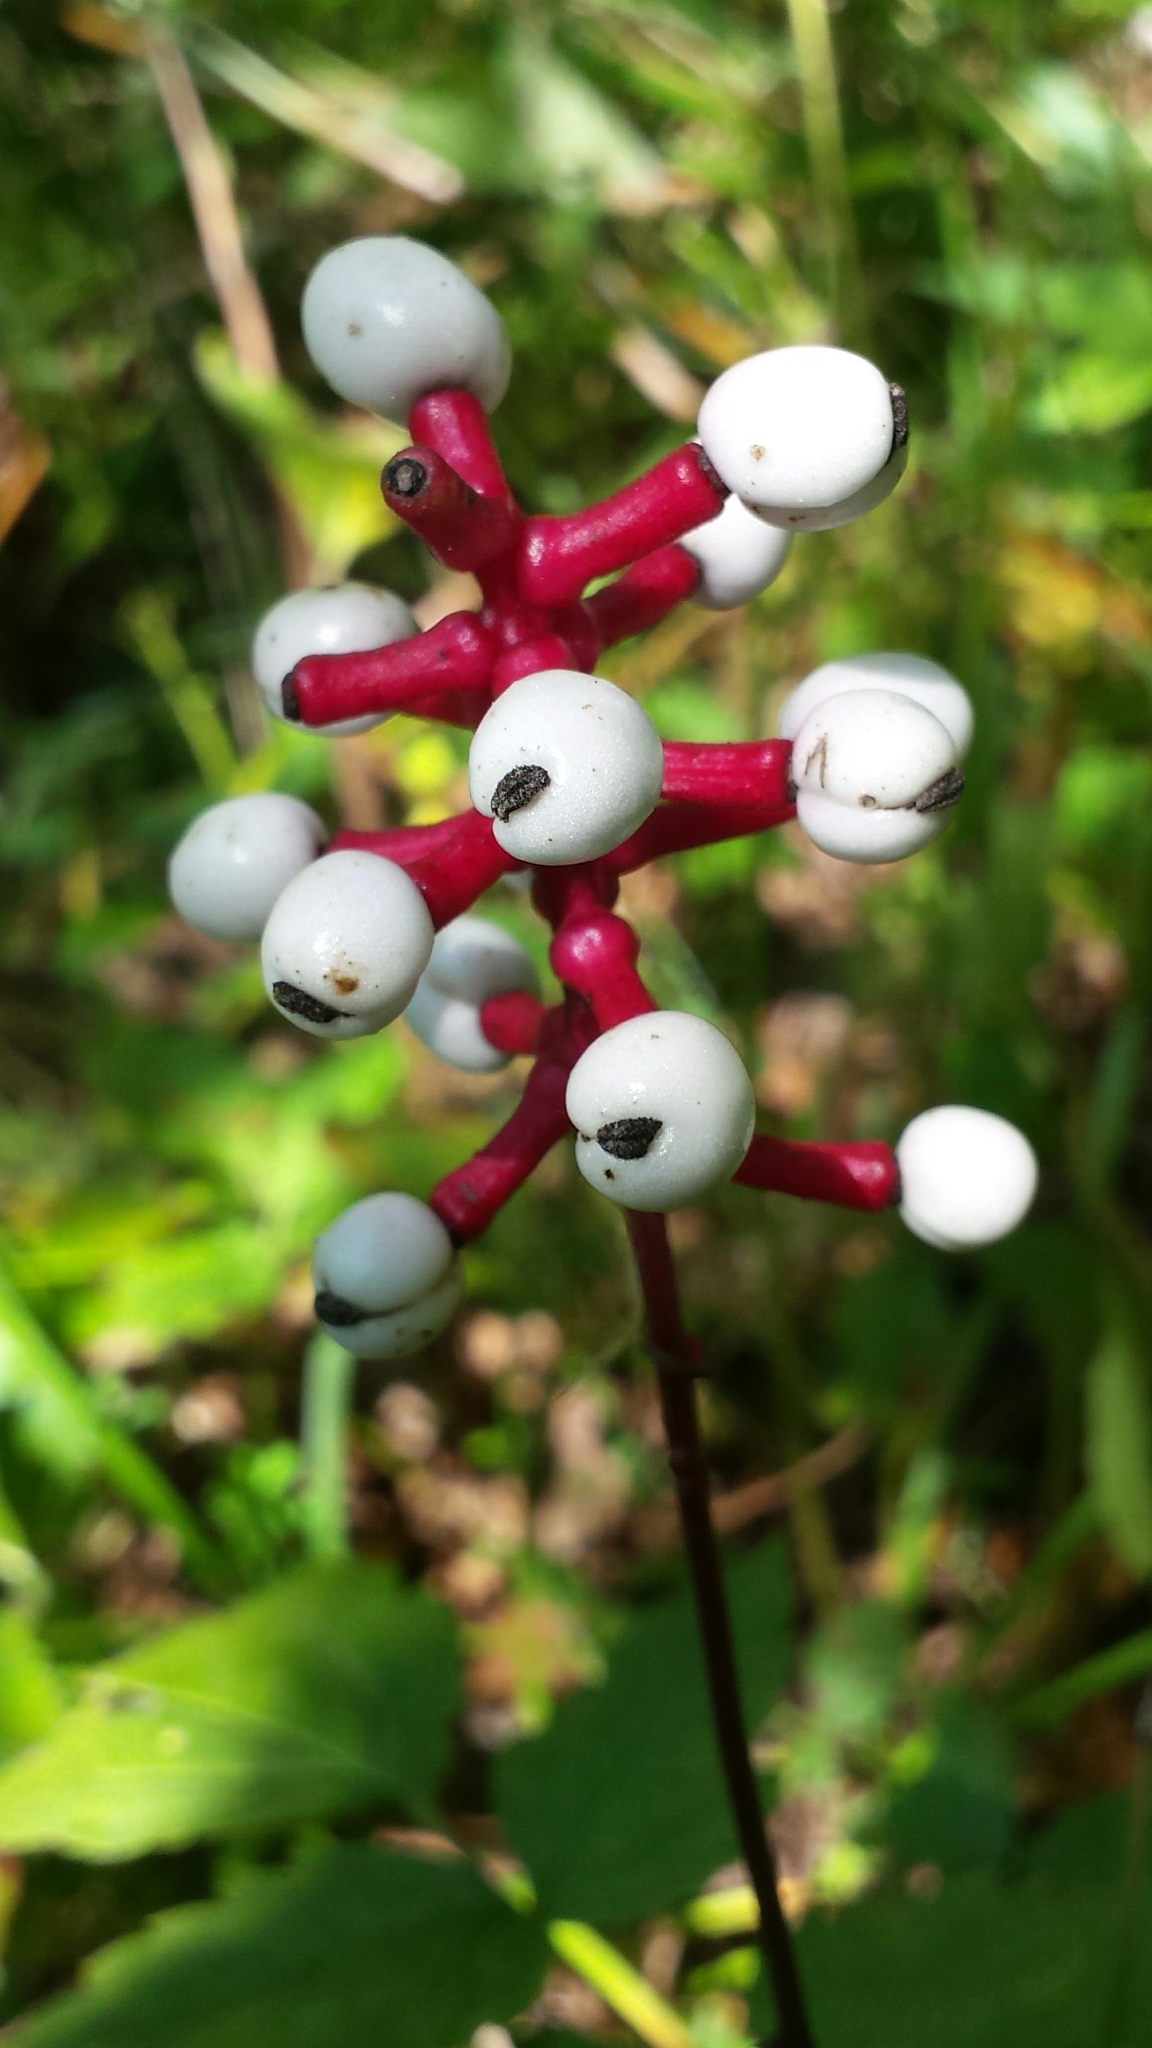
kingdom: Plantae
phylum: Tracheophyta
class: Magnoliopsida
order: Ranunculales
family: Ranunculaceae
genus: Actaea
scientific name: Actaea pachypoda
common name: Doll's-eyes
